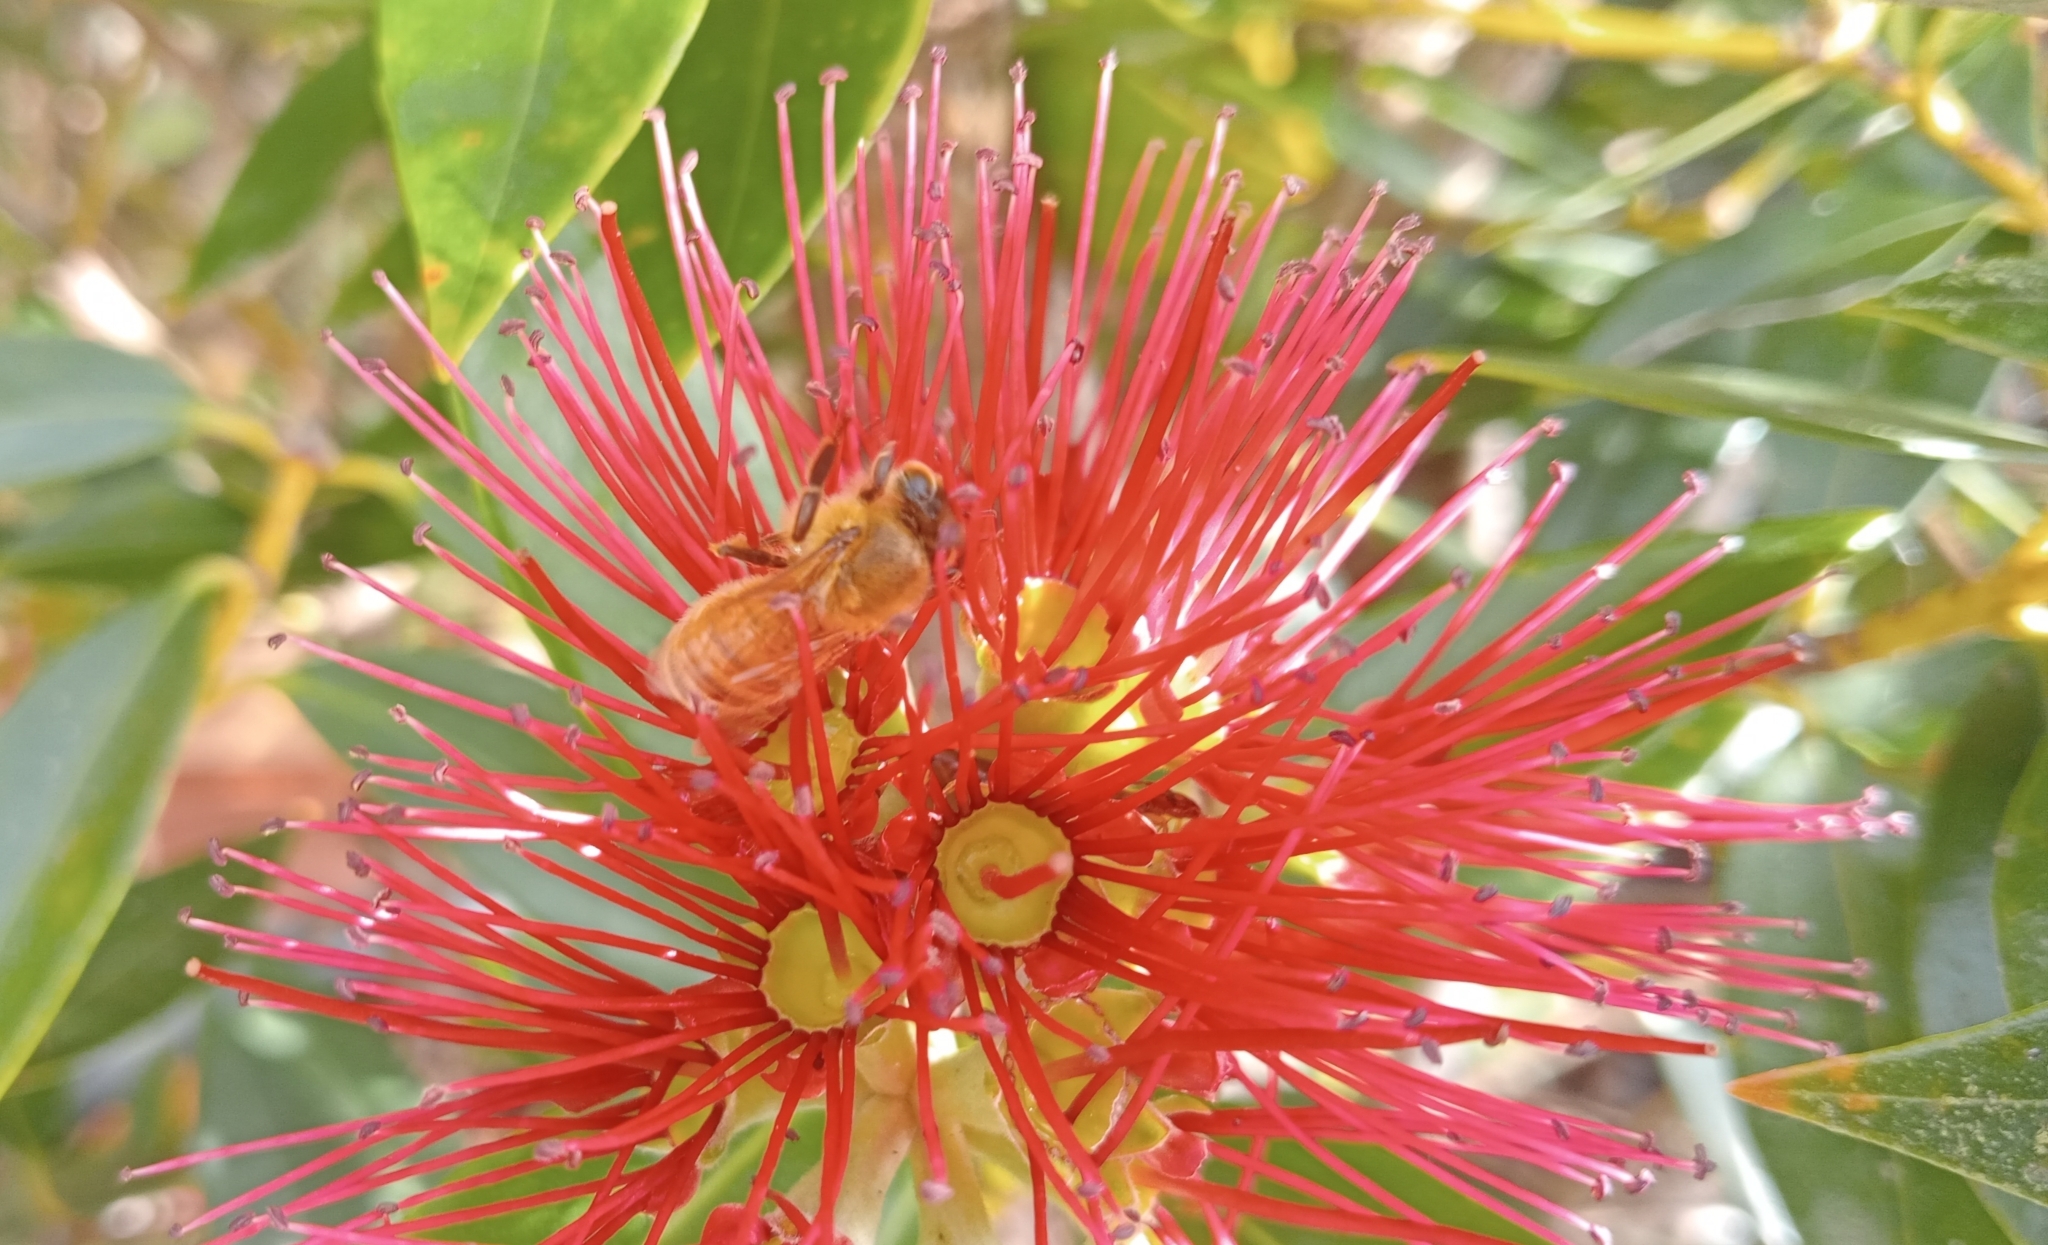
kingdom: Animalia
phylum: Arthropoda
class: Insecta
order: Hymenoptera
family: Apidae
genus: Apis
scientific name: Apis mellifera
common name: Honey bee
